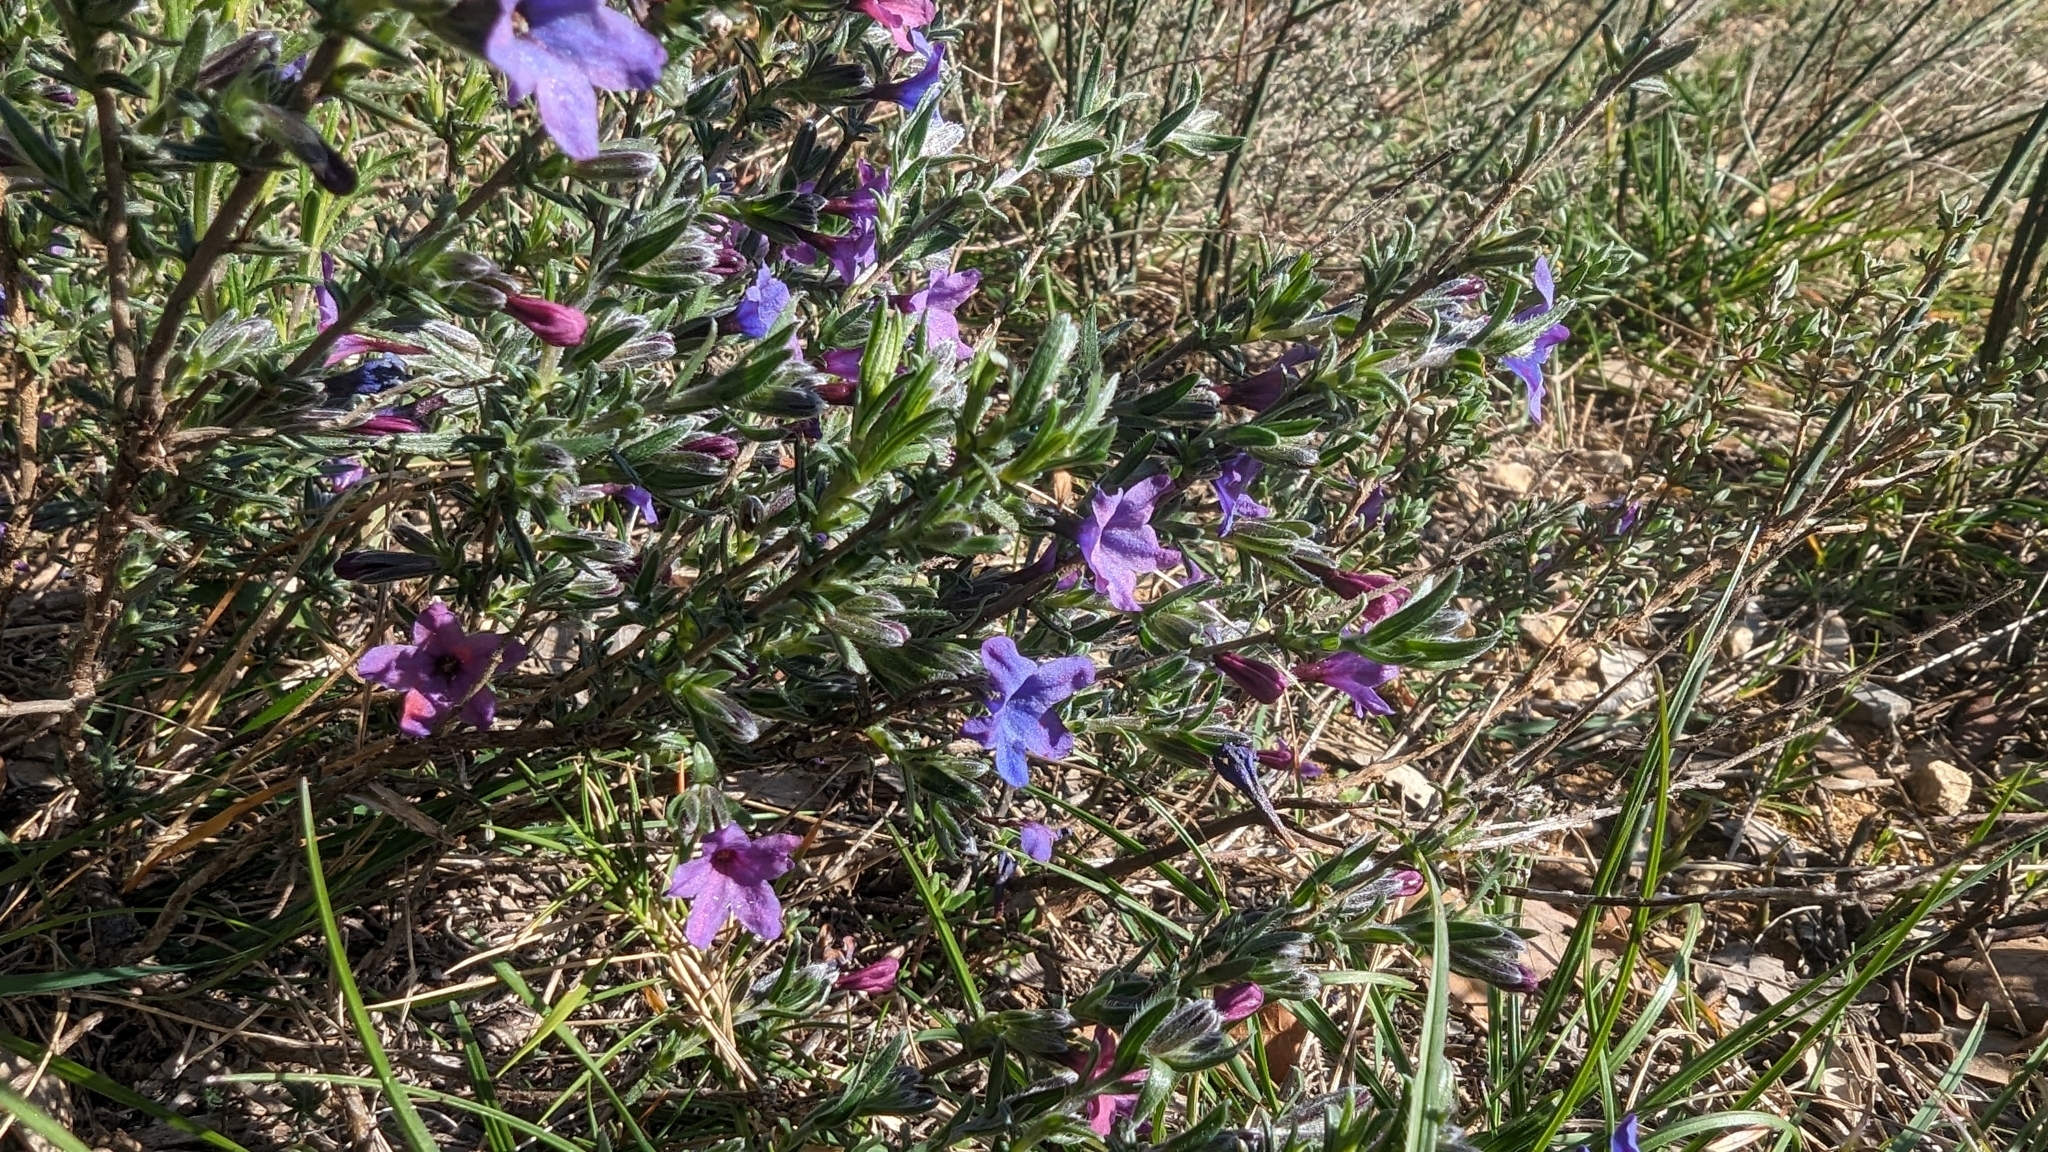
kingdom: Plantae
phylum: Tracheophyta
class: Magnoliopsida
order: Boraginales
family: Boraginaceae
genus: Lithodora
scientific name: Lithodora fruticosa
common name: Shrubby gromwell
